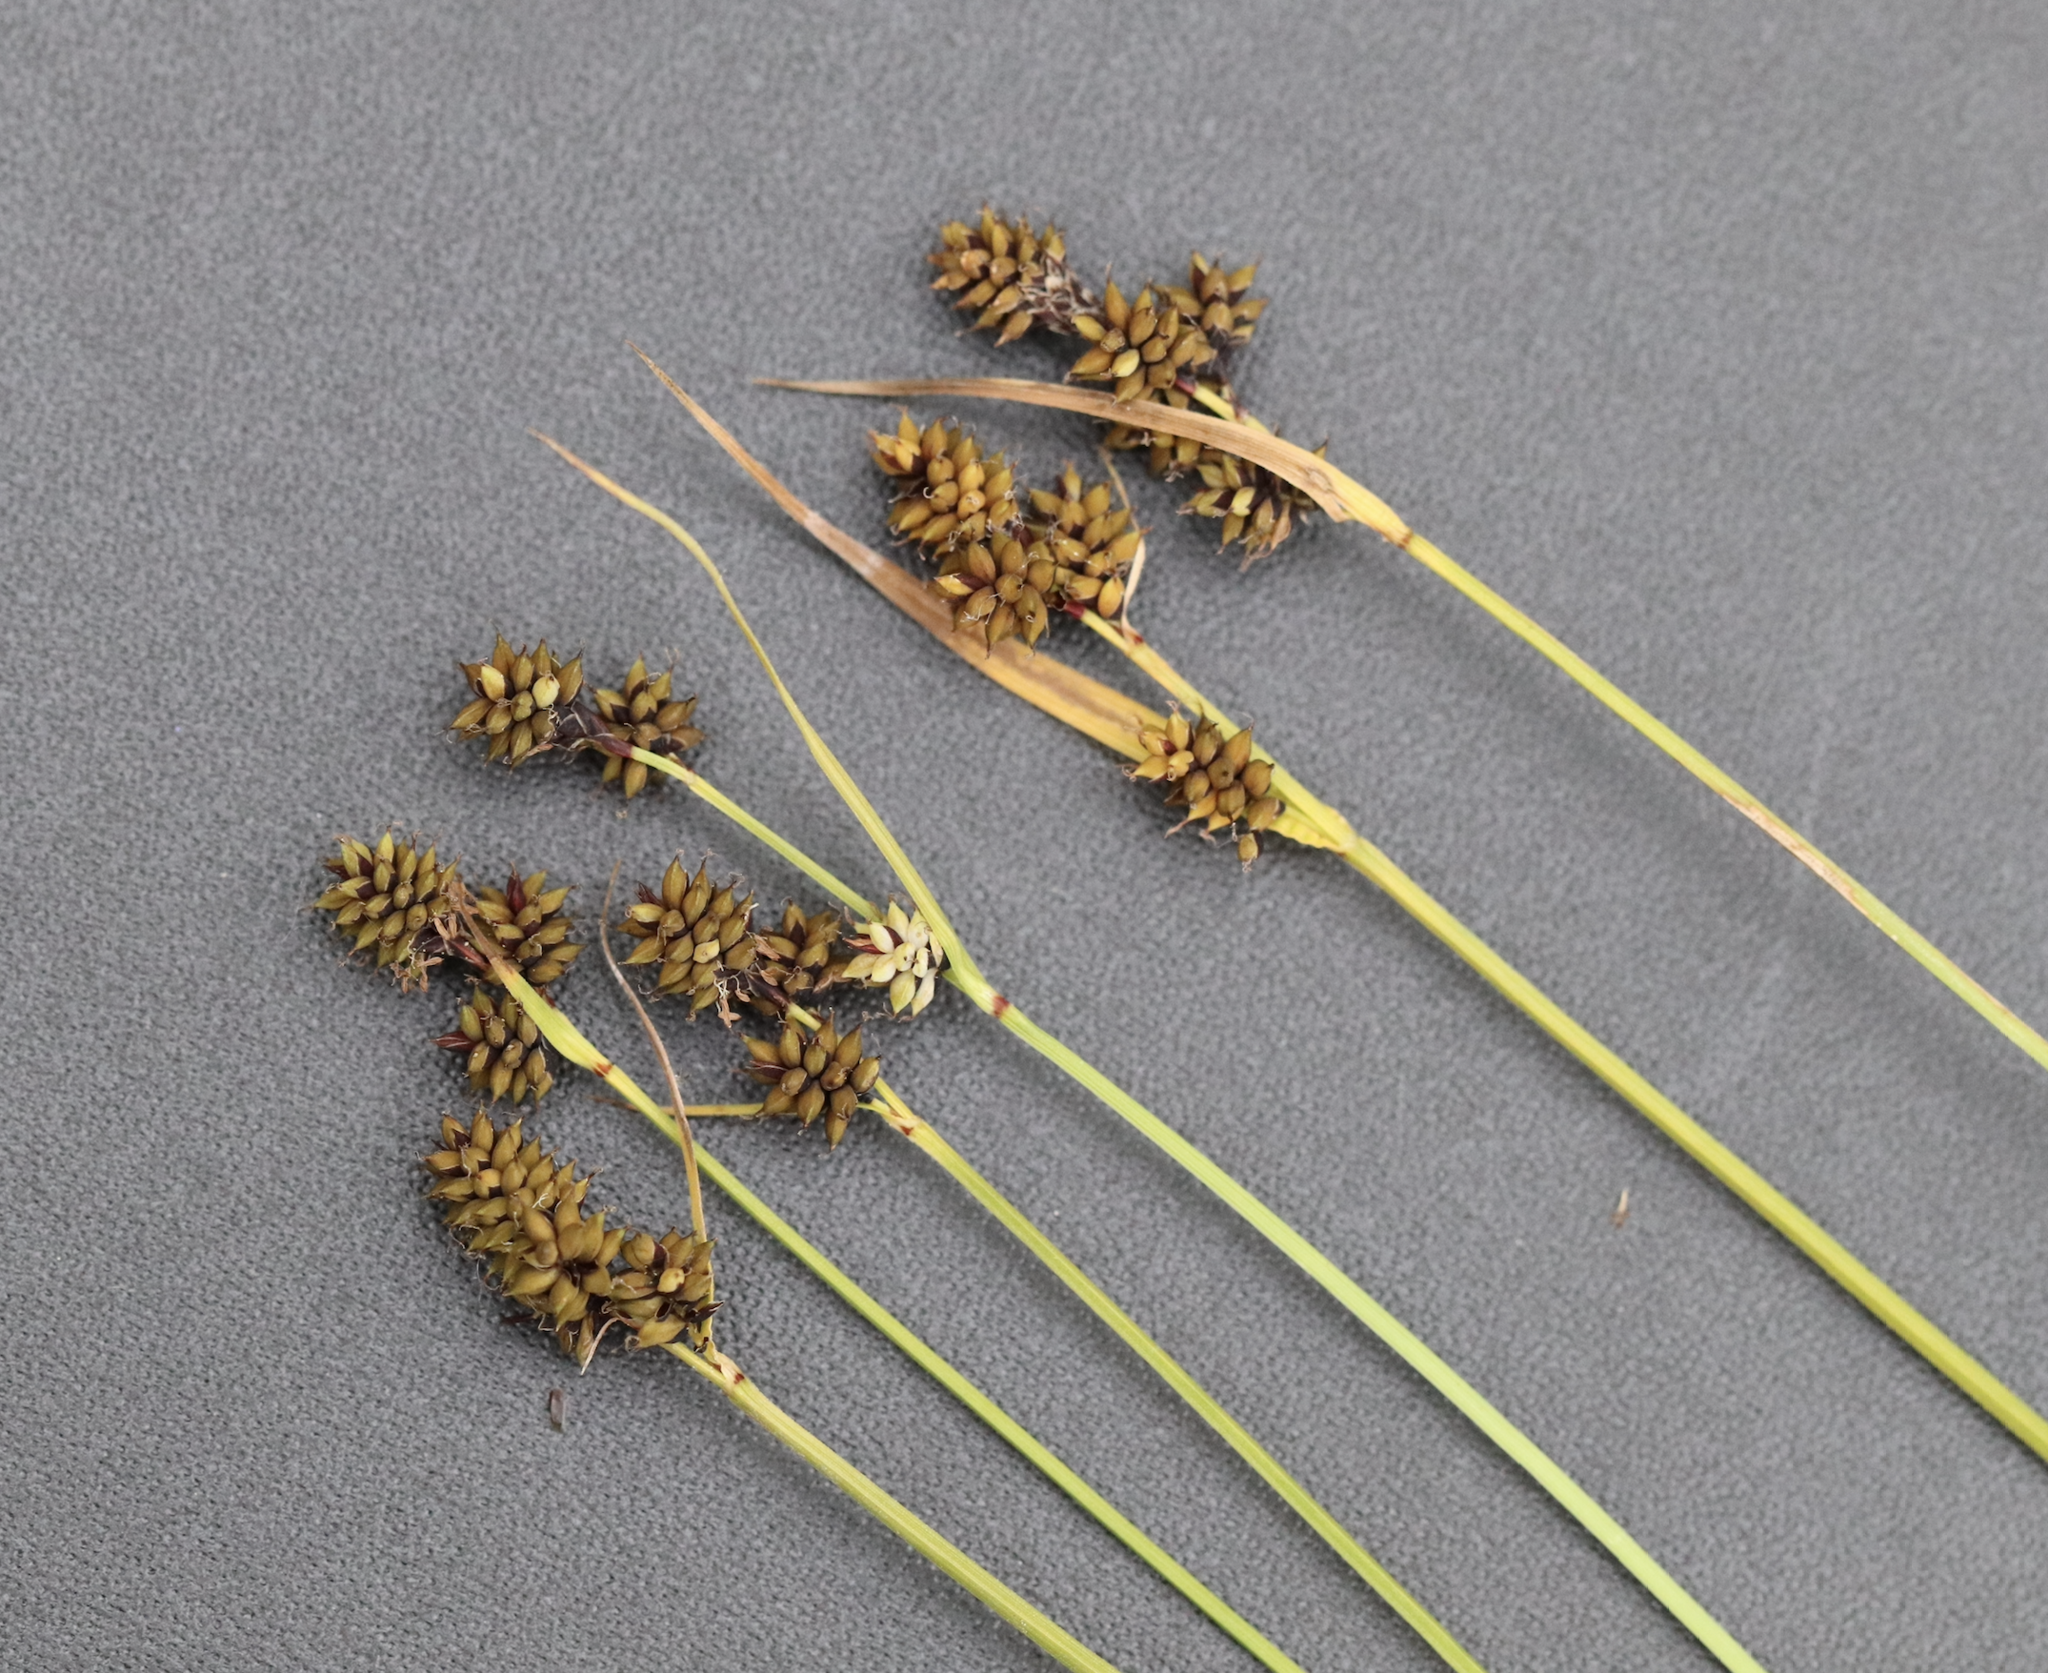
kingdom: Plantae
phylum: Tracheophyta
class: Liliopsida
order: Poales
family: Cyperaceae
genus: Carex
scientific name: Carex media
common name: Alpine sedge
